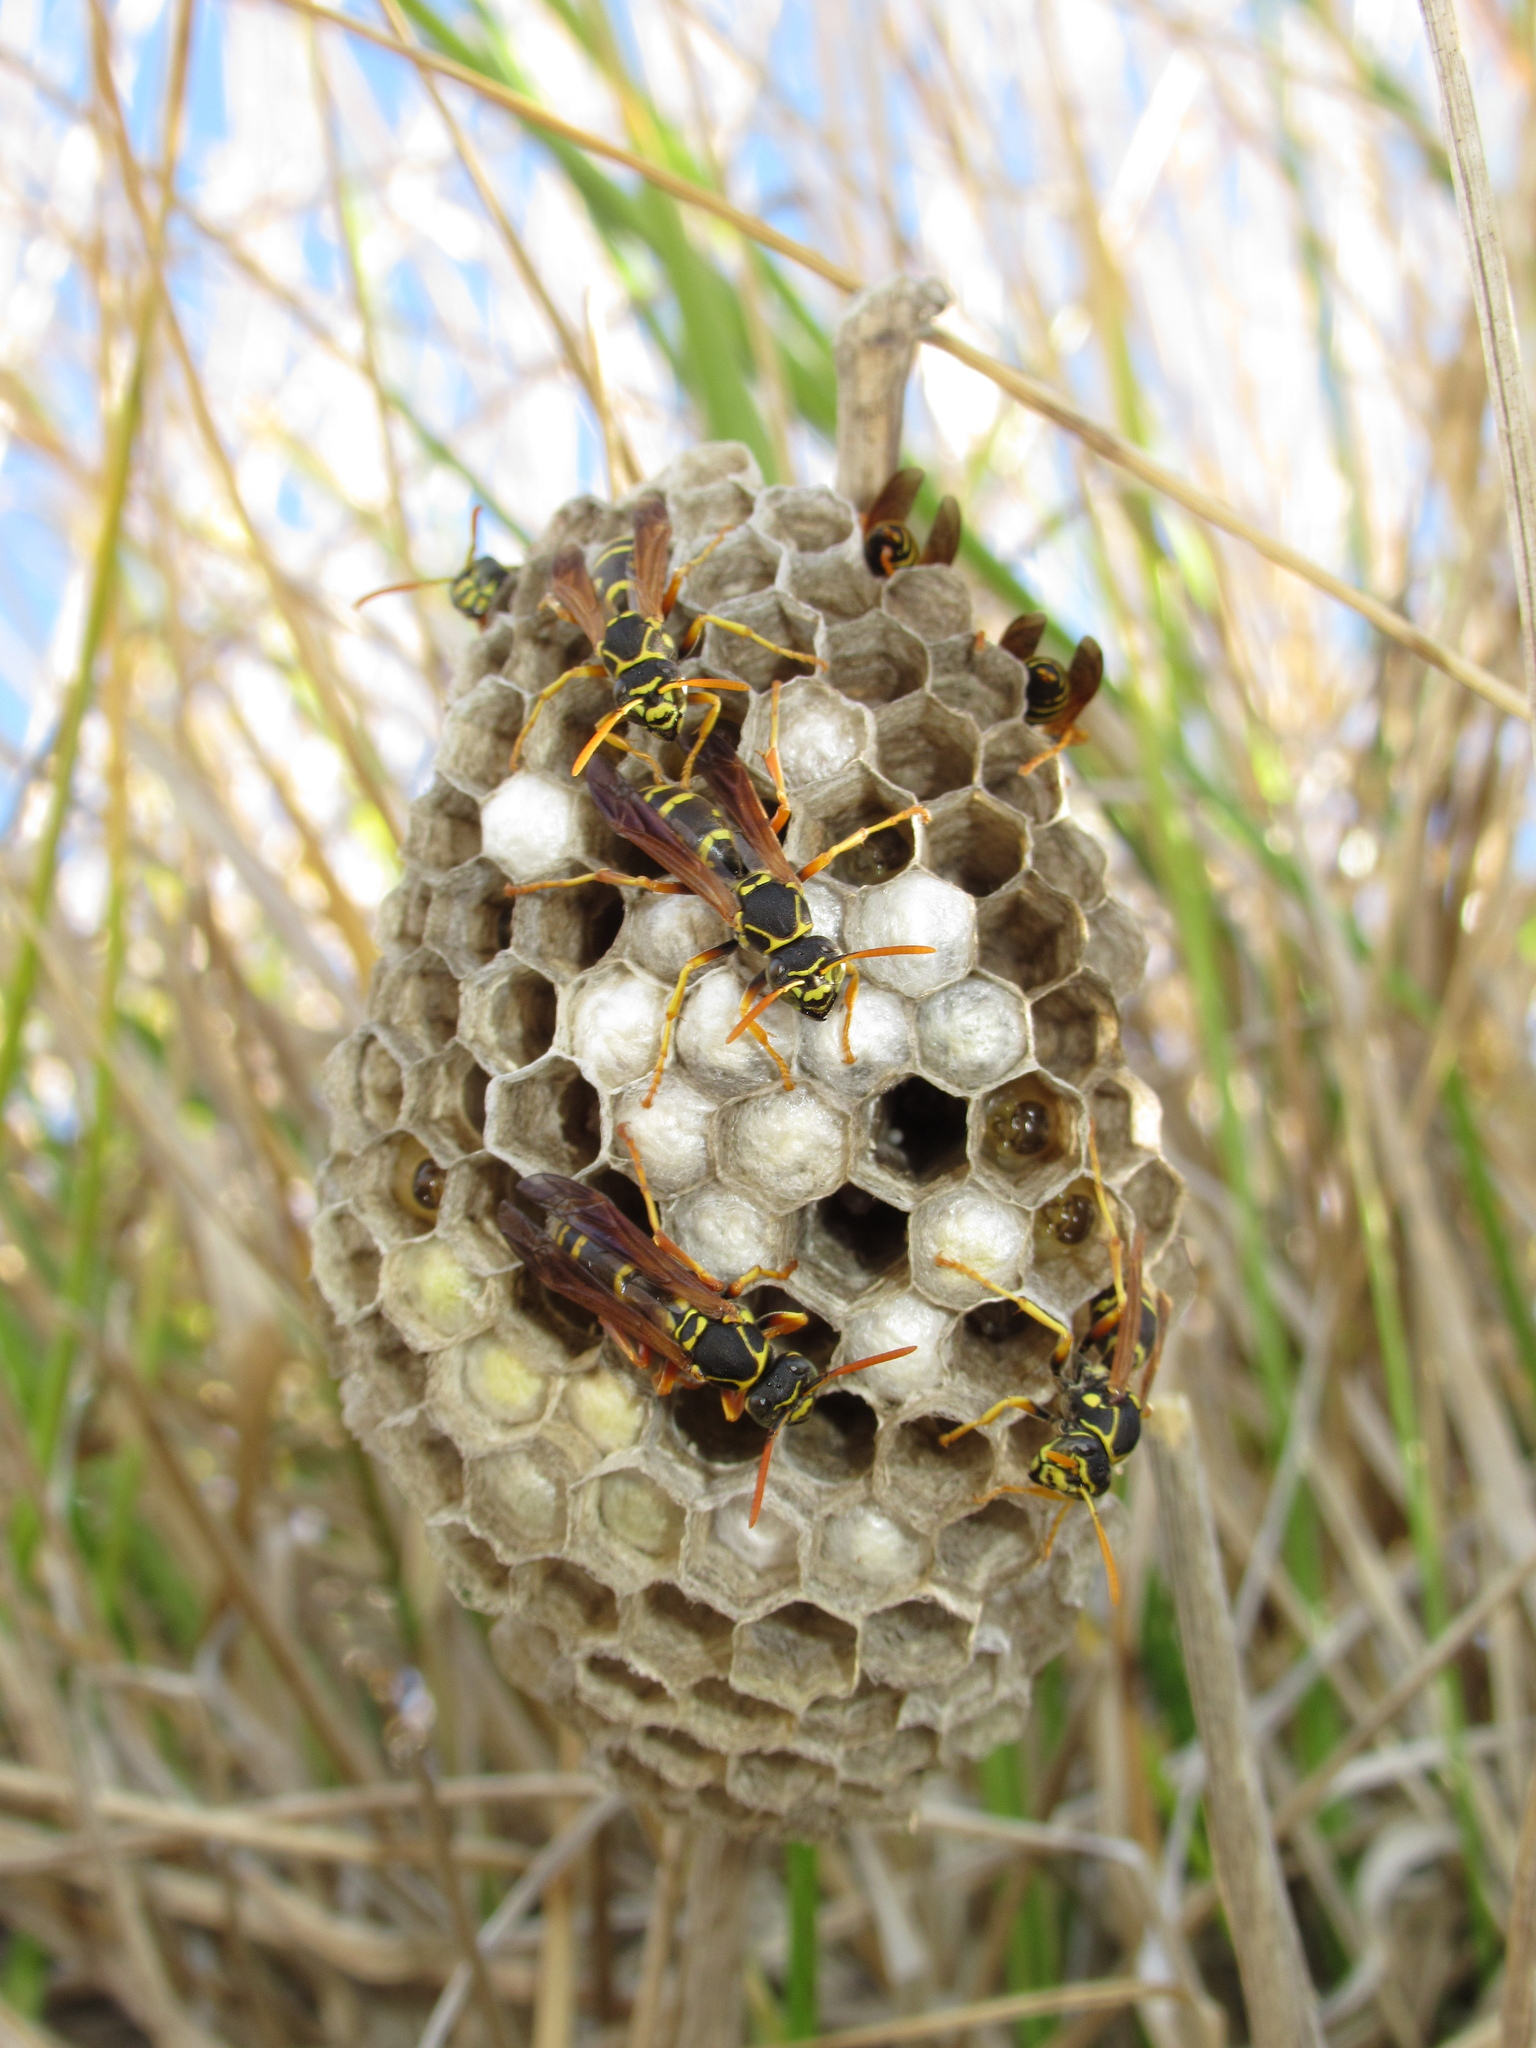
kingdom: Animalia
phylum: Arthropoda
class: Insecta
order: Hymenoptera
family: Eumenidae
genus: Polistes
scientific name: Polistes chinensis
